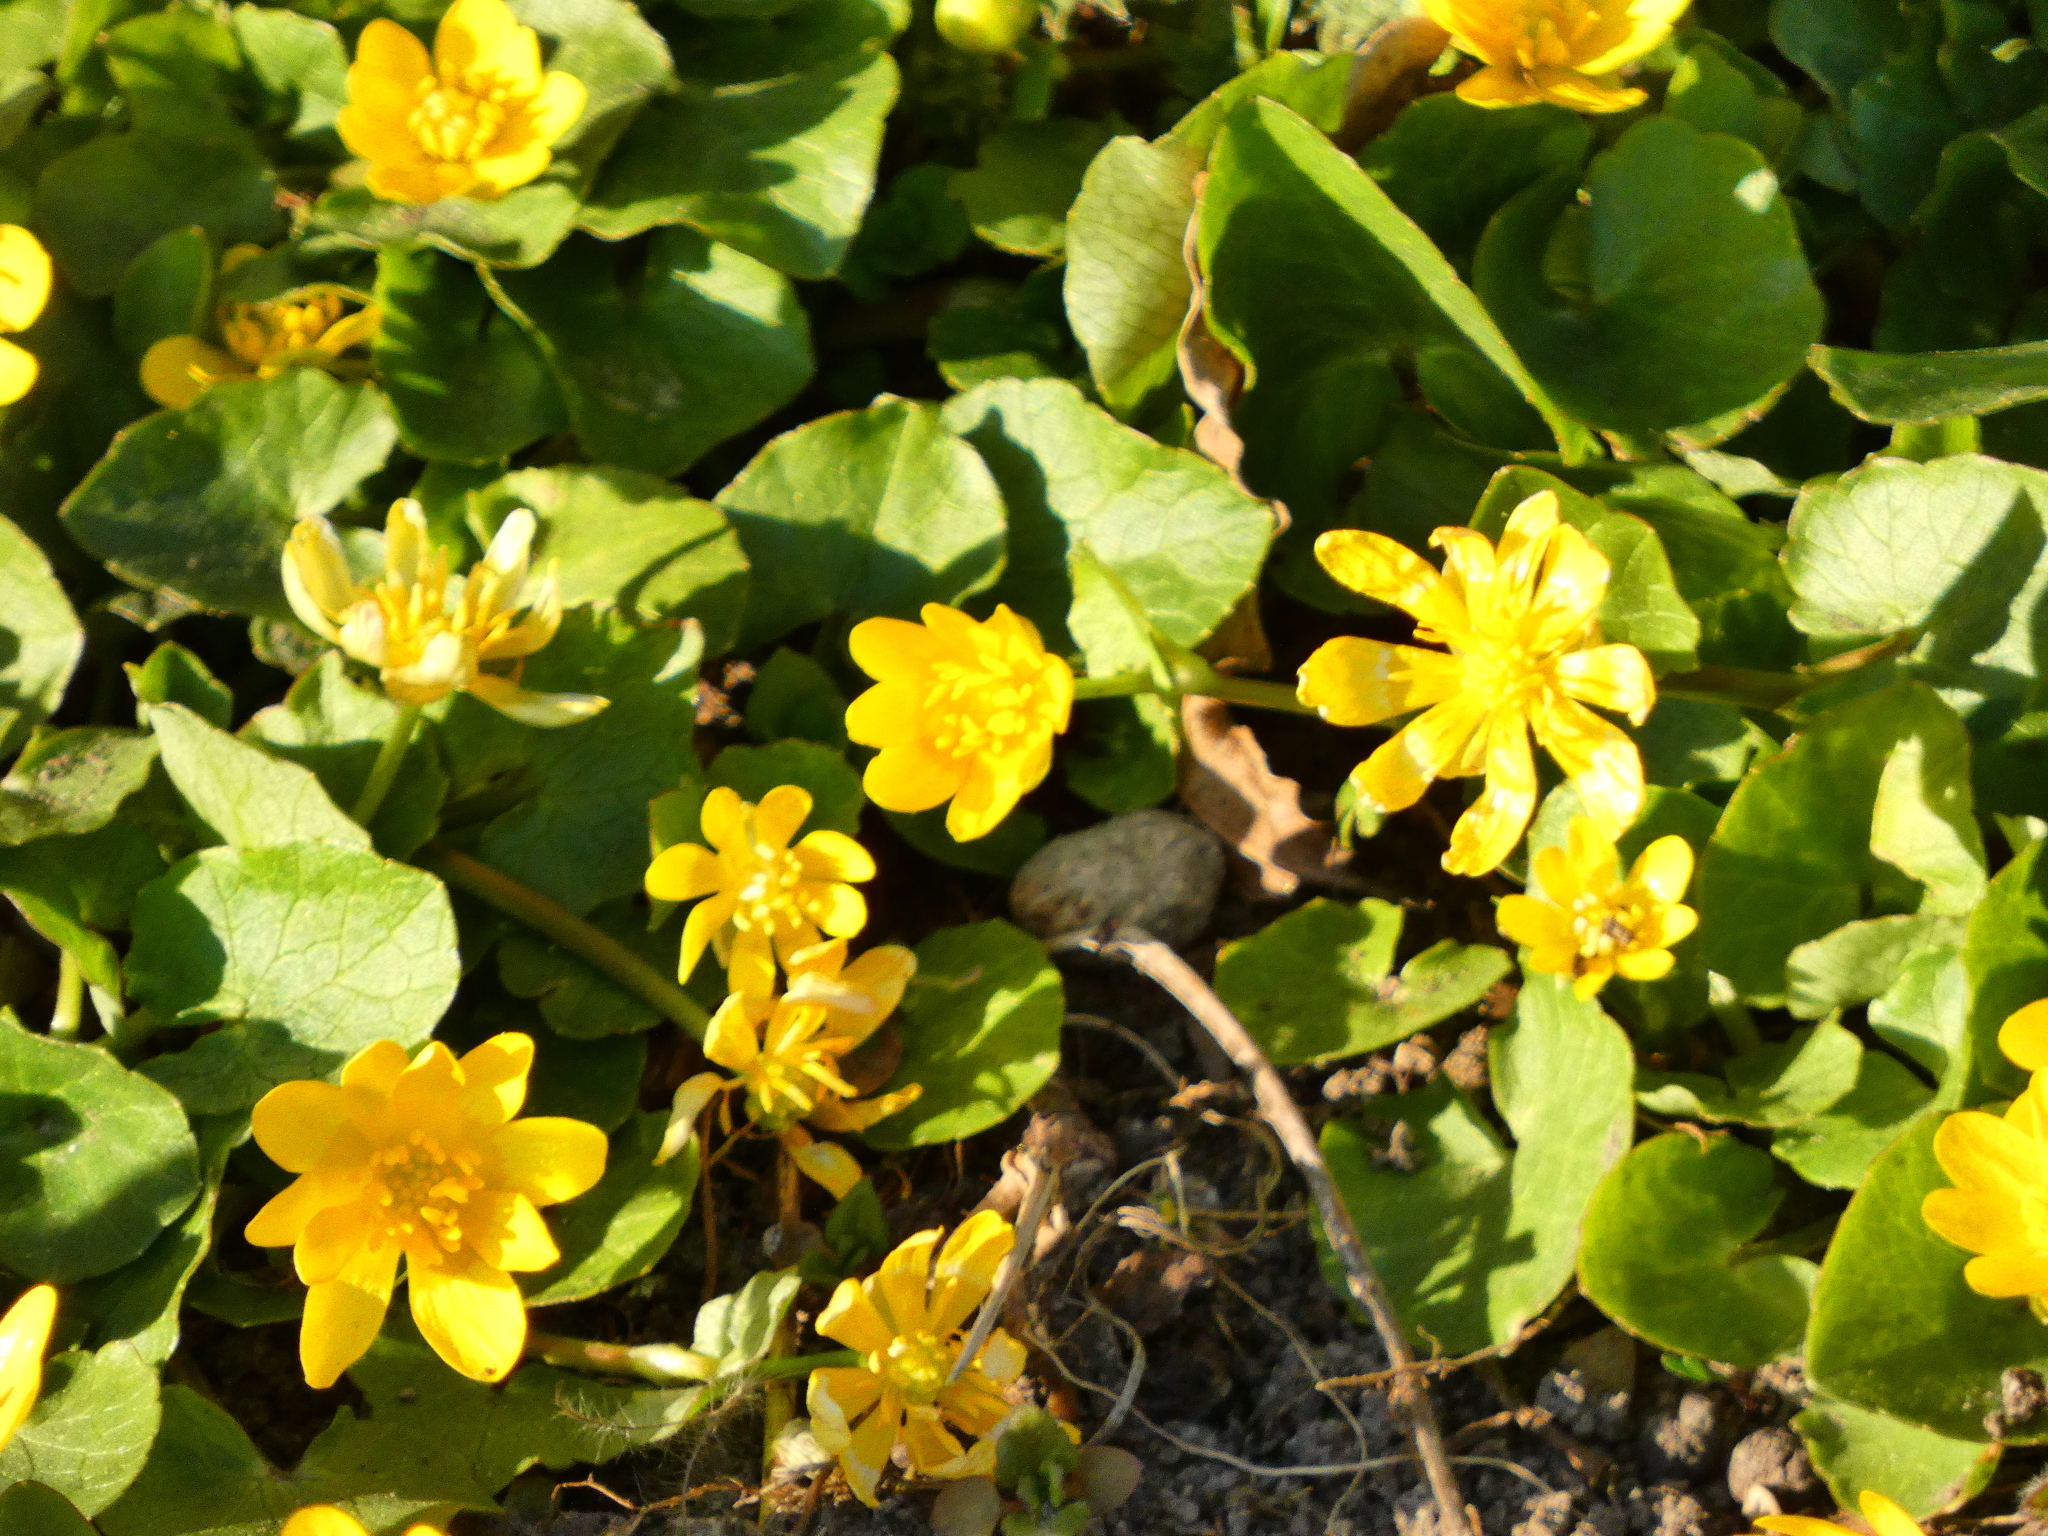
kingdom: Plantae
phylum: Tracheophyta
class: Magnoliopsida
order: Ranunculales
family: Ranunculaceae
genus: Ficaria
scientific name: Ficaria verna
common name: Lesser celandine
